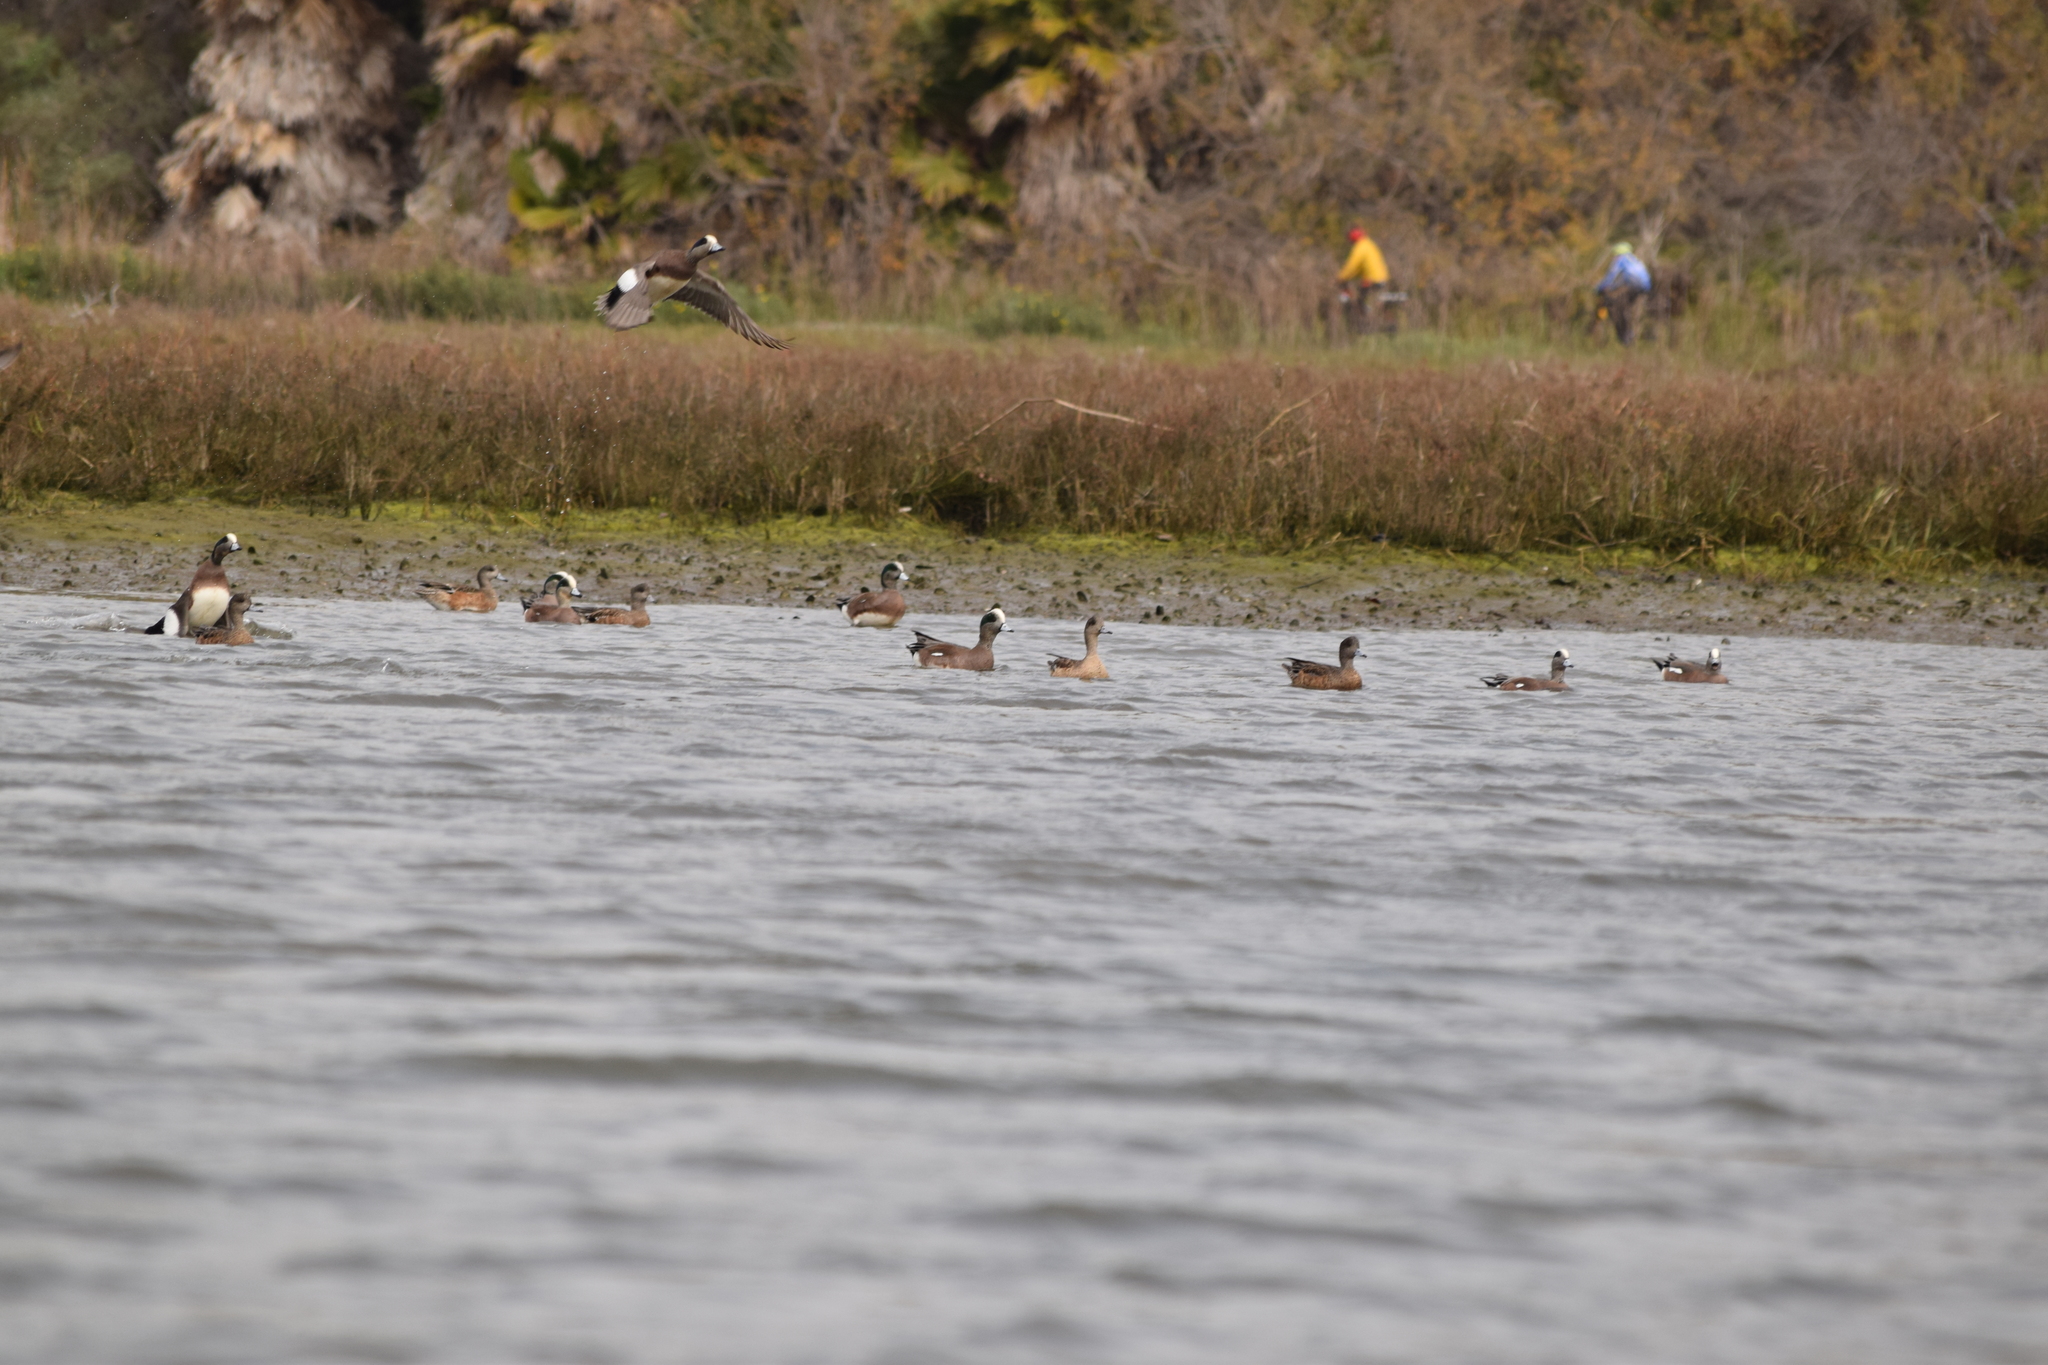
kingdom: Animalia
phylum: Chordata
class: Aves
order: Anseriformes
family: Anatidae
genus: Mareca
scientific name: Mareca americana
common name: American wigeon
